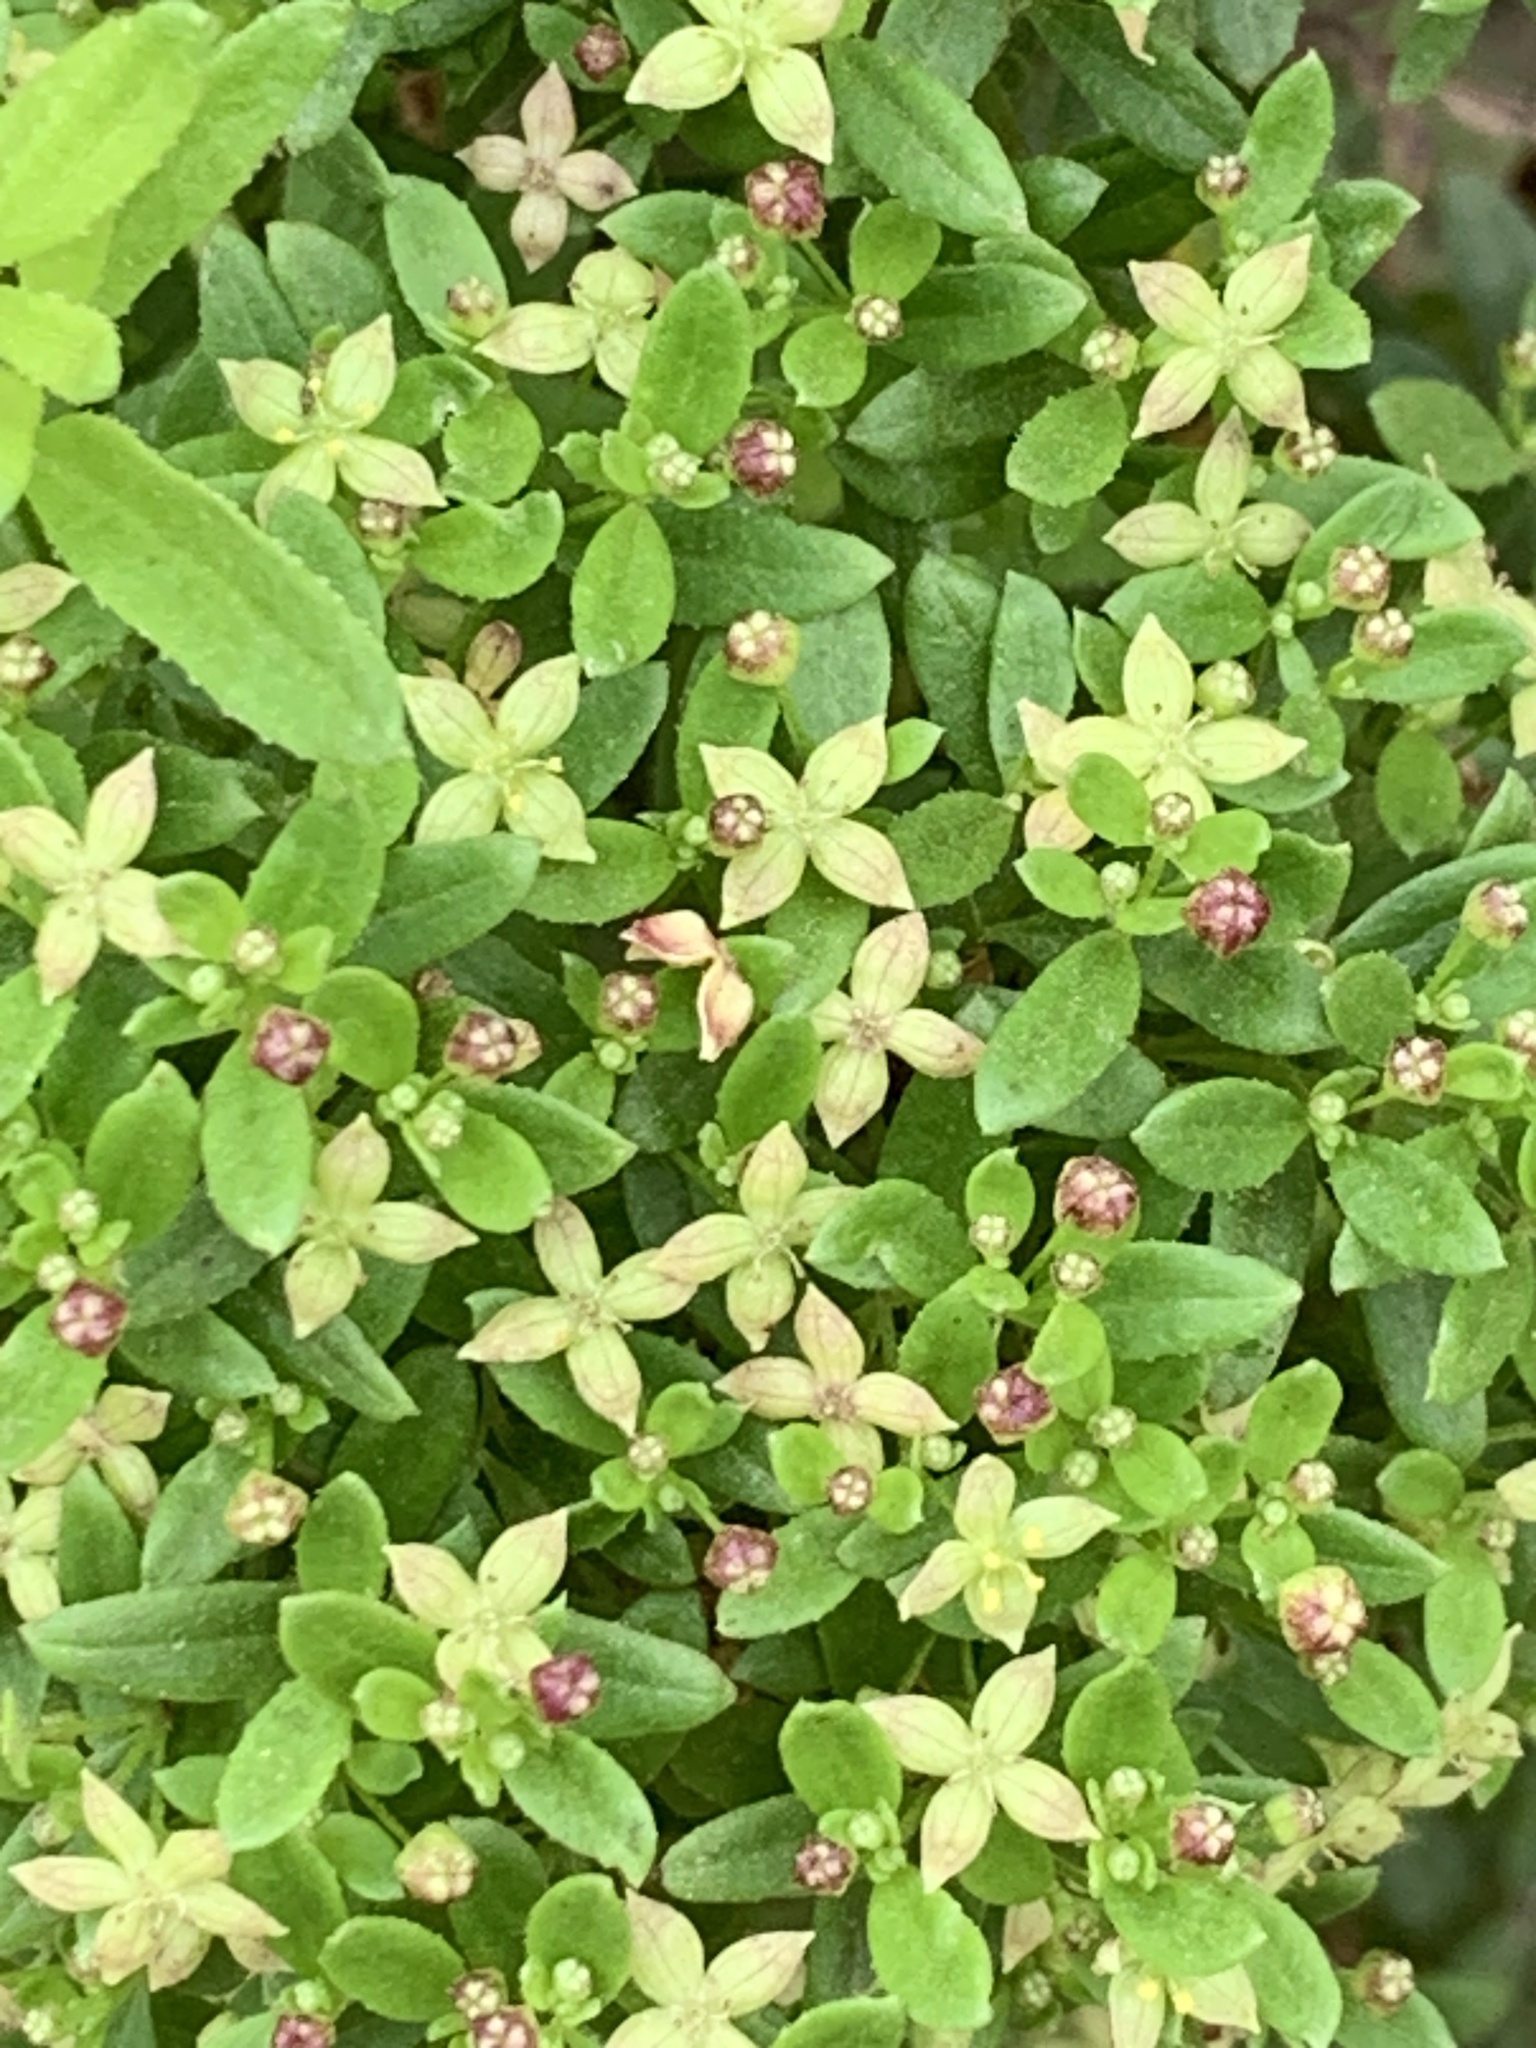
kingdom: Plantae
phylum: Tracheophyta
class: Magnoliopsida
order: Gentianales
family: Rubiaceae
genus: Galium
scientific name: Galium catalinense
